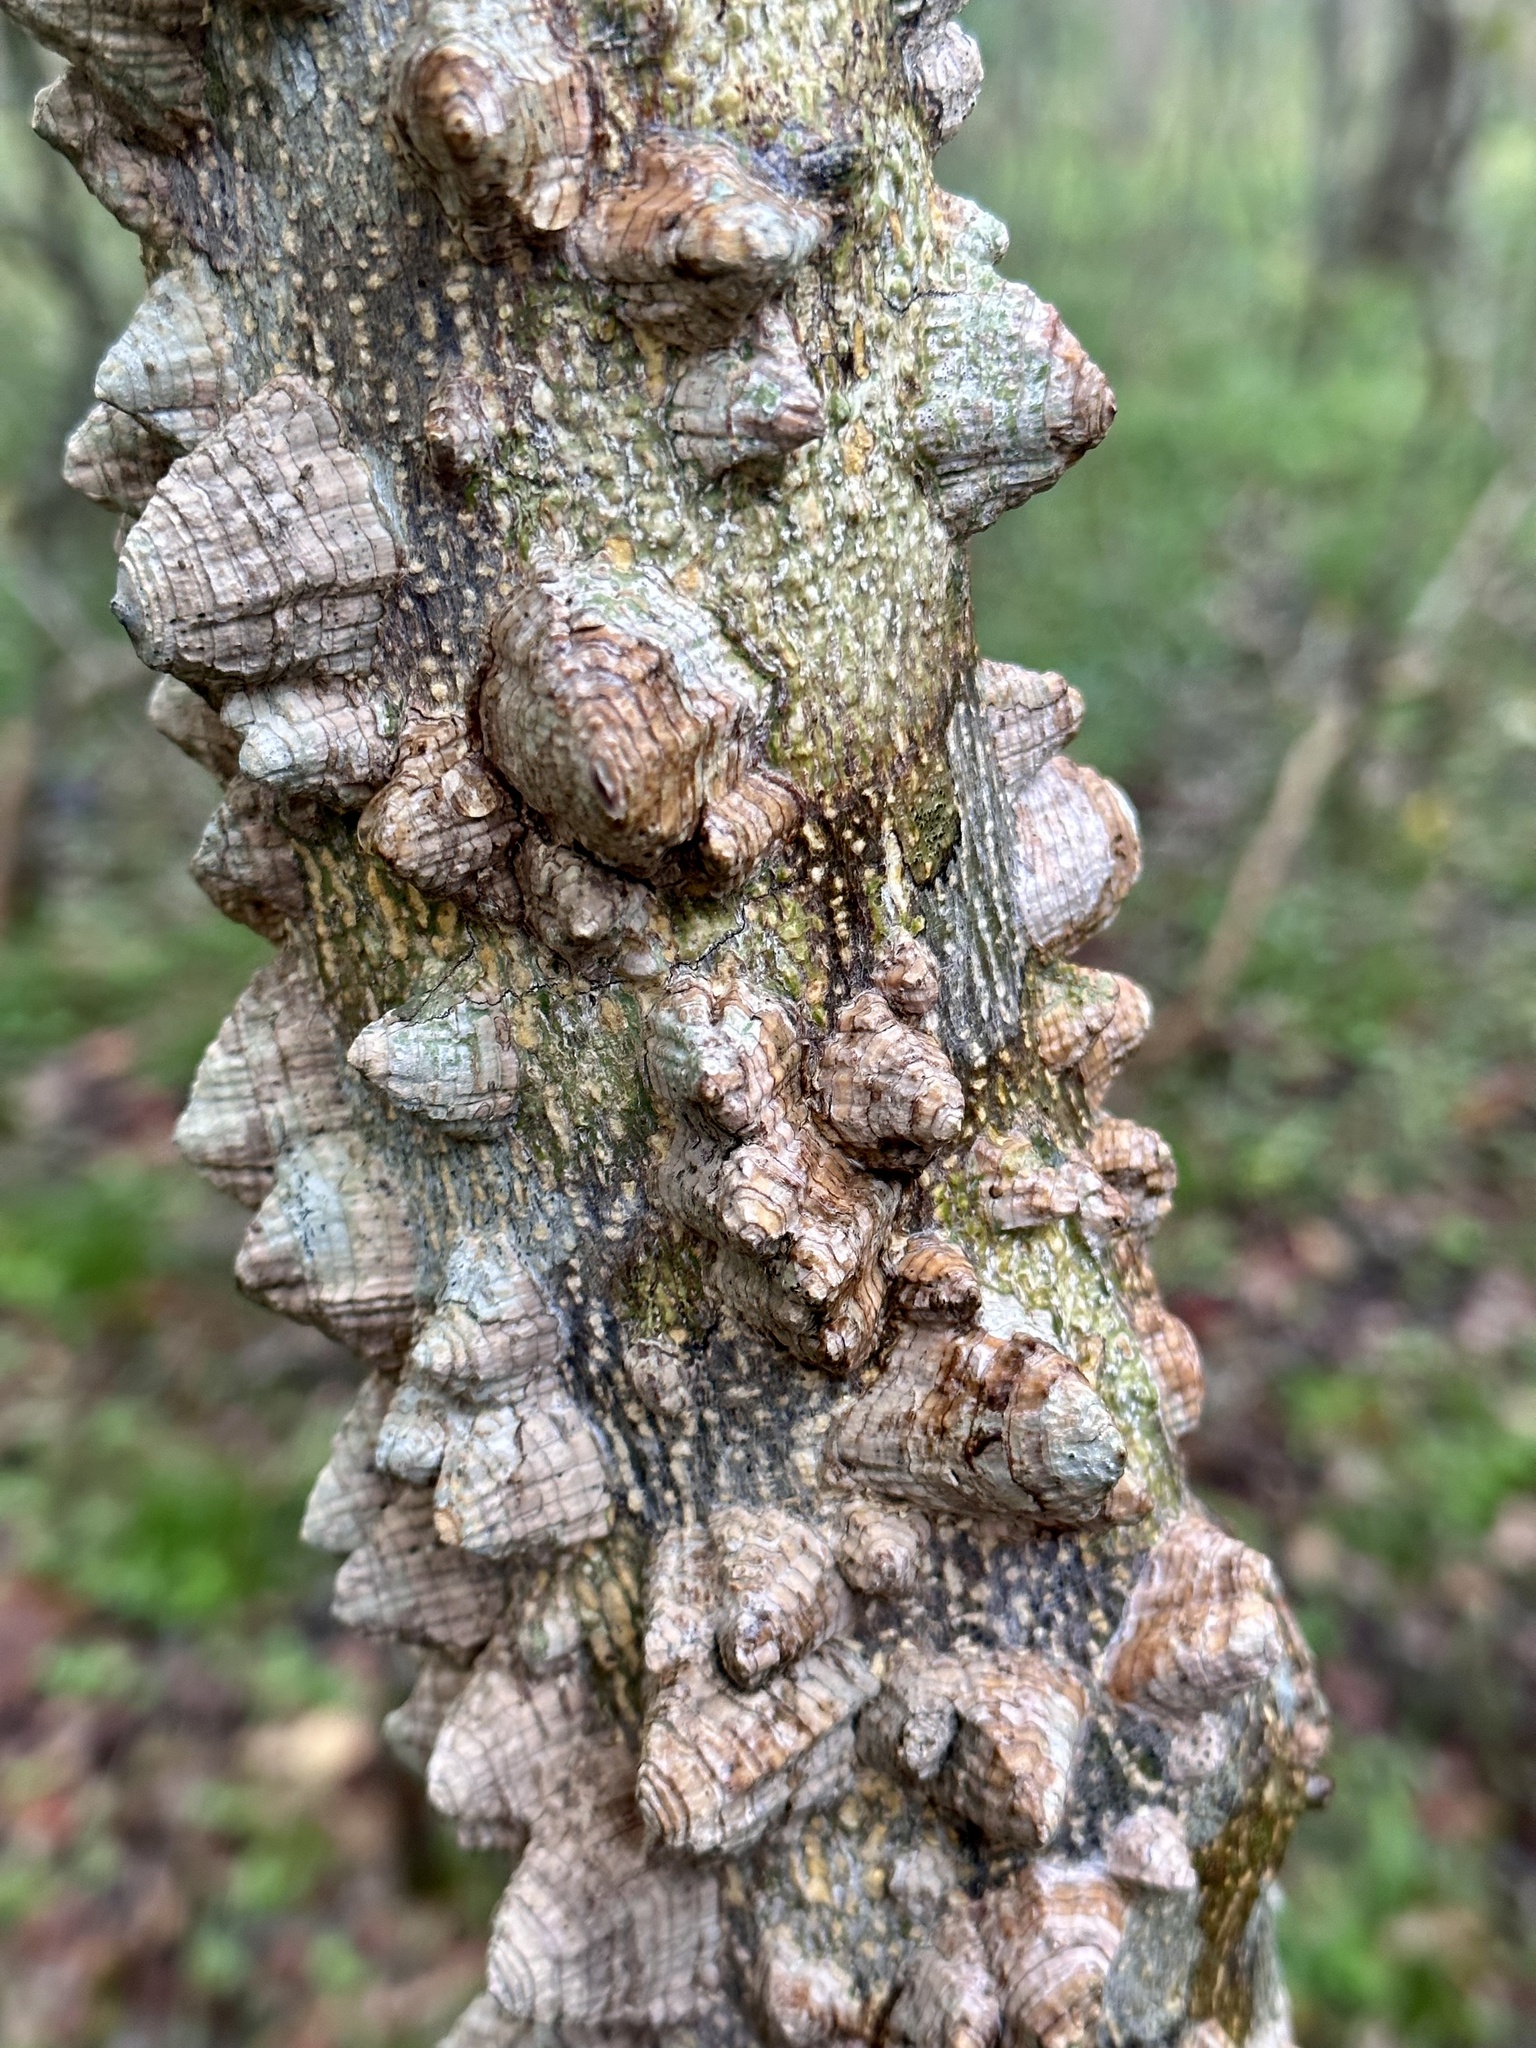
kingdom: Plantae
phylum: Tracheophyta
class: Magnoliopsida
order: Sapindales
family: Rutaceae
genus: Zanthoxylum
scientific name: Zanthoxylum clava-herculis
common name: Hercules'-club
